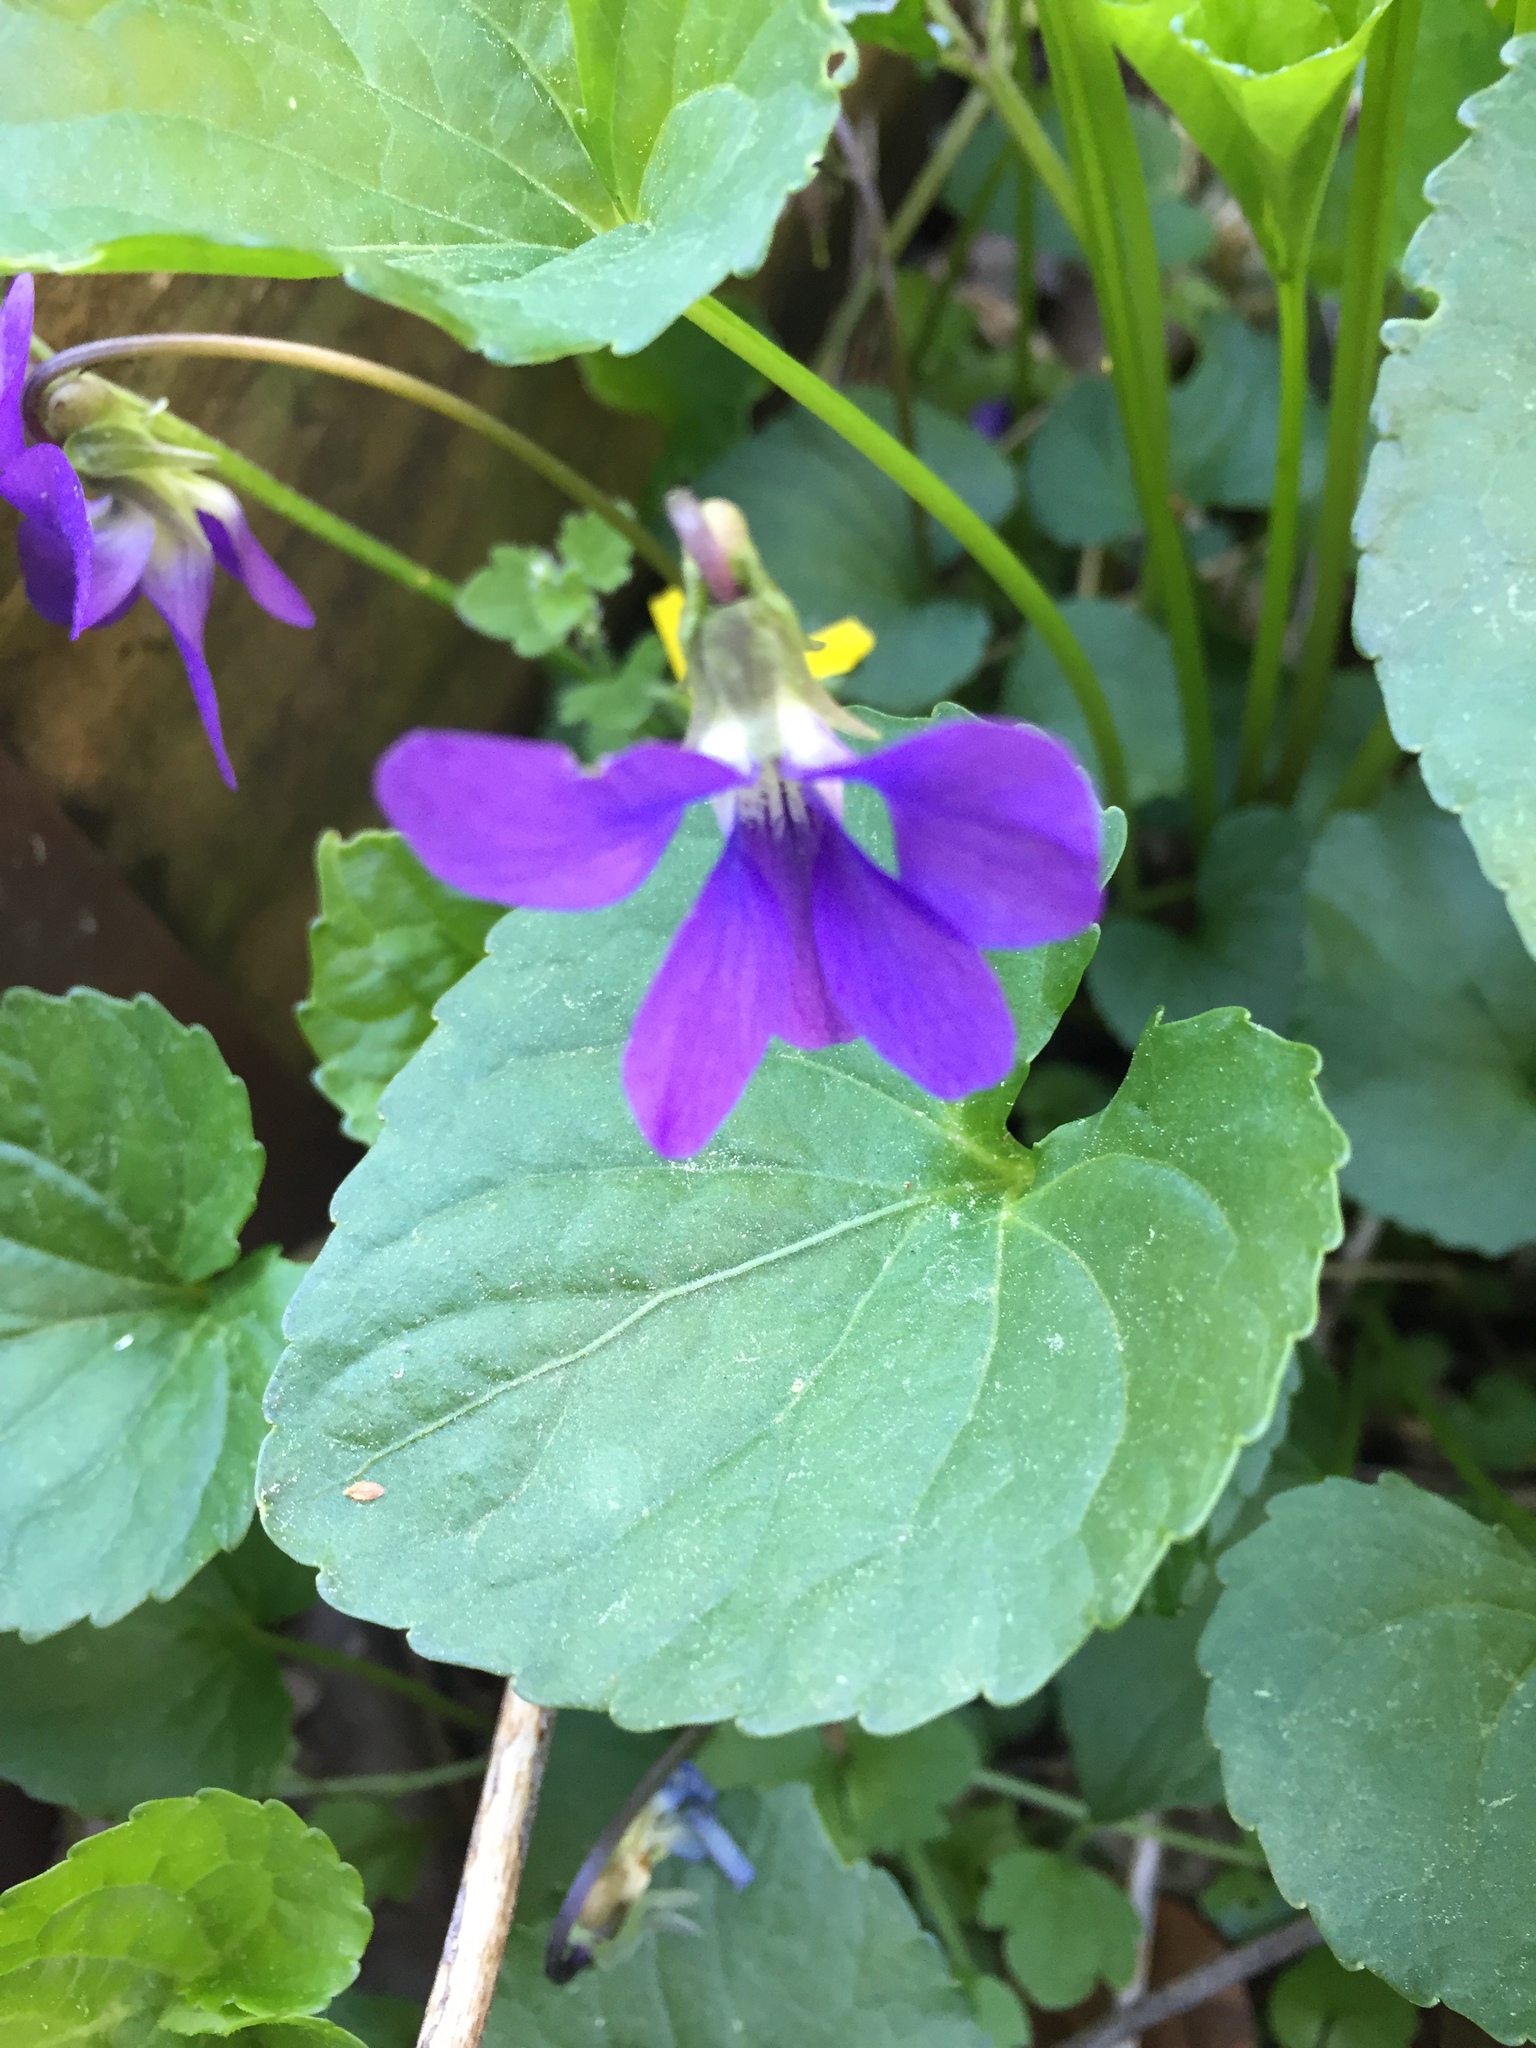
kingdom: Plantae
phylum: Tracheophyta
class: Magnoliopsida
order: Malpighiales
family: Violaceae
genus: Viola
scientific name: Viola sororia
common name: Dooryard violet
